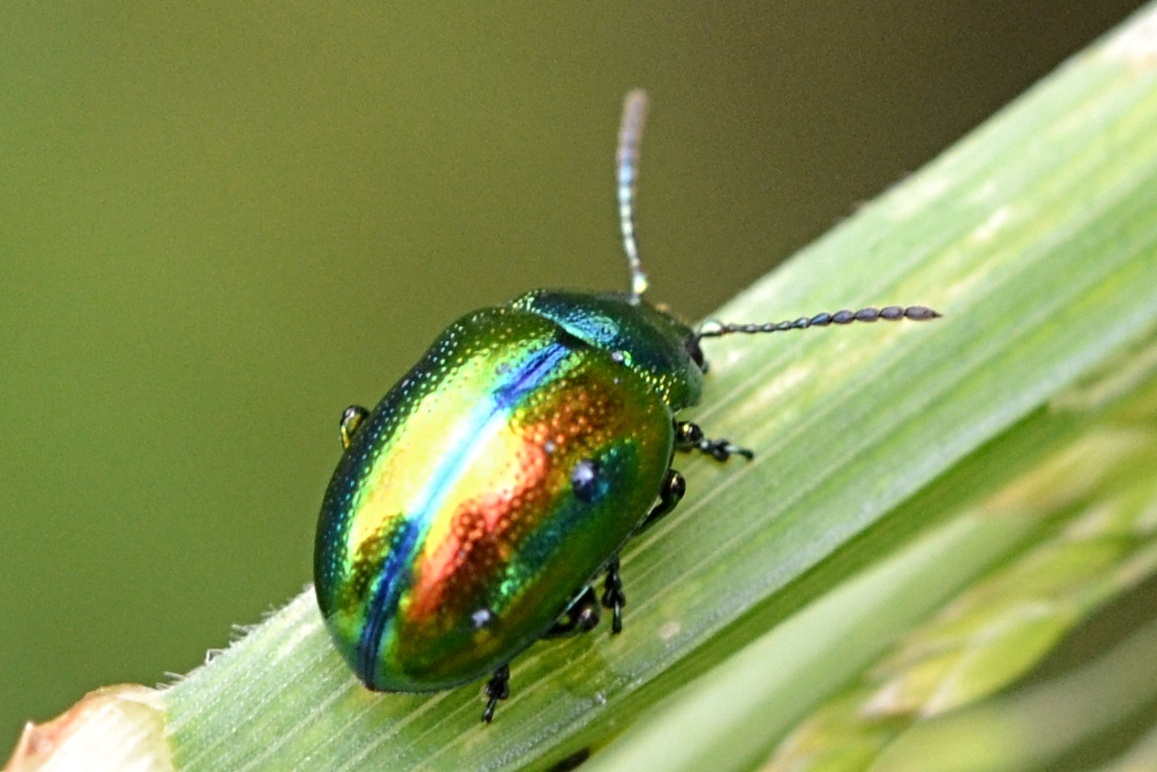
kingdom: Animalia
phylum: Arthropoda
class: Insecta
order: Coleoptera
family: Chrysomelidae
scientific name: Chrysomelidae
